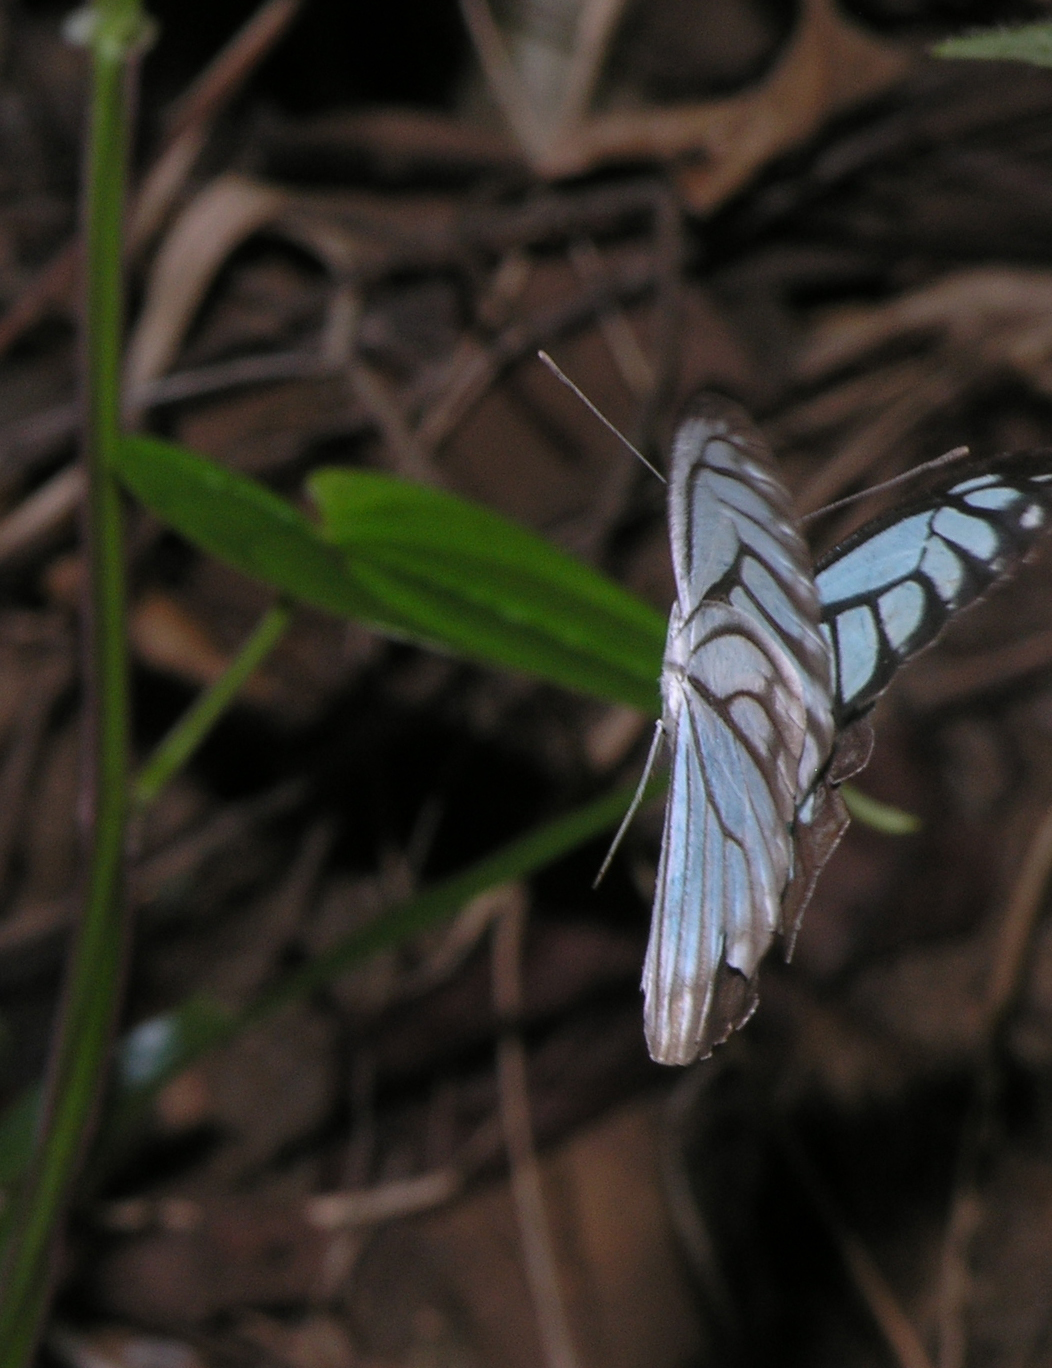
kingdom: Animalia
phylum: Arthropoda
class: Insecta
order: Lepidoptera
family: Pieridae
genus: Pareronia
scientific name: Pareronia hippia
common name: Indian wanderer
